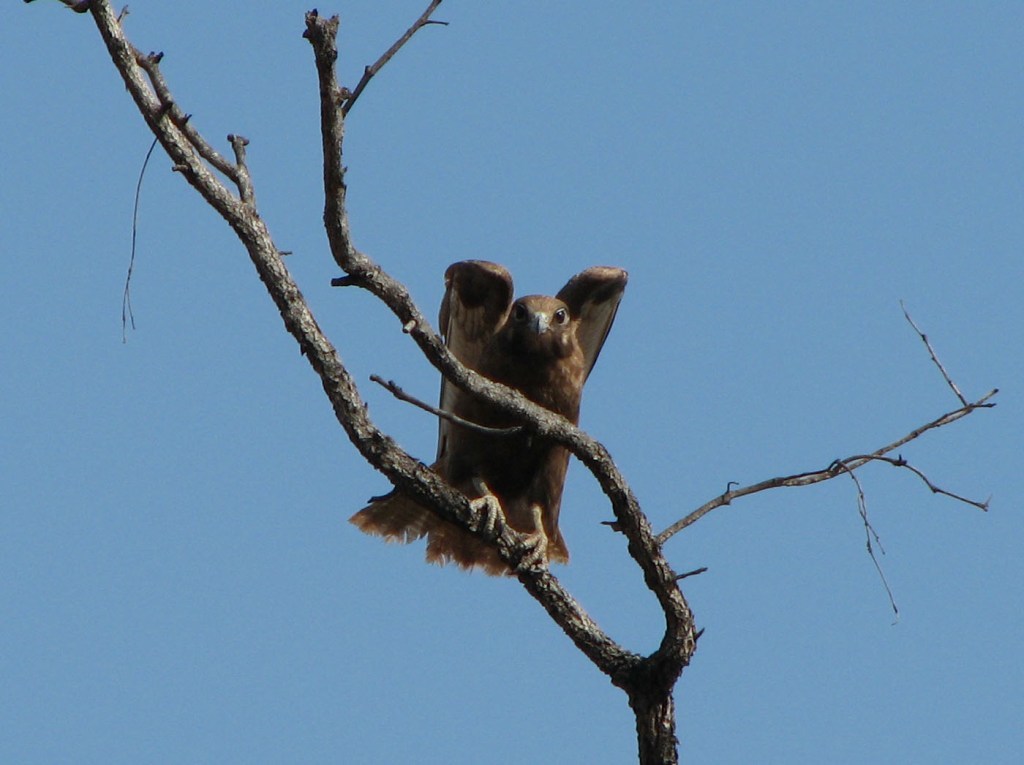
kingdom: Animalia
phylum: Chordata
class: Aves
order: Falconiformes
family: Falconidae
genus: Falco
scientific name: Falco berigora
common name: Brown falcon
